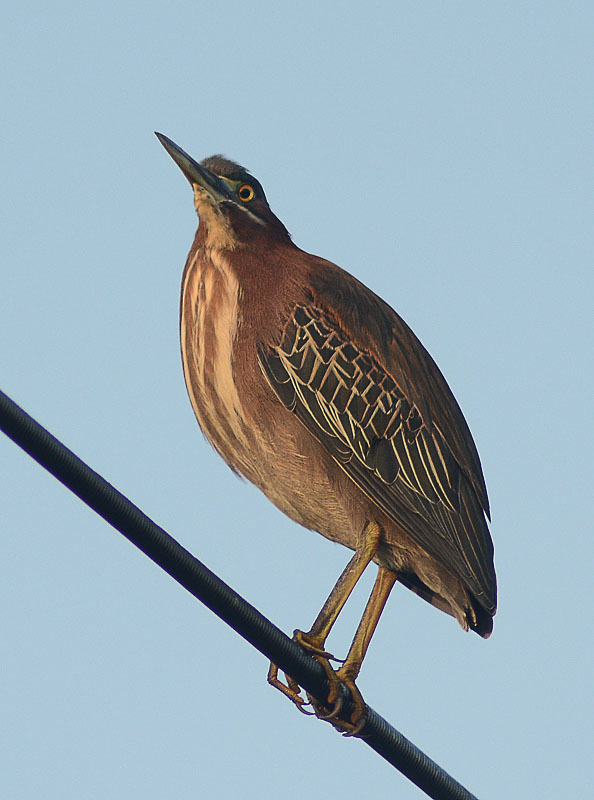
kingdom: Animalia
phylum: Chordata
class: Aves
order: Pelecaniformes
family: Ardeidae
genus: Butorides
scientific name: Butorides virescens
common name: Green heron
